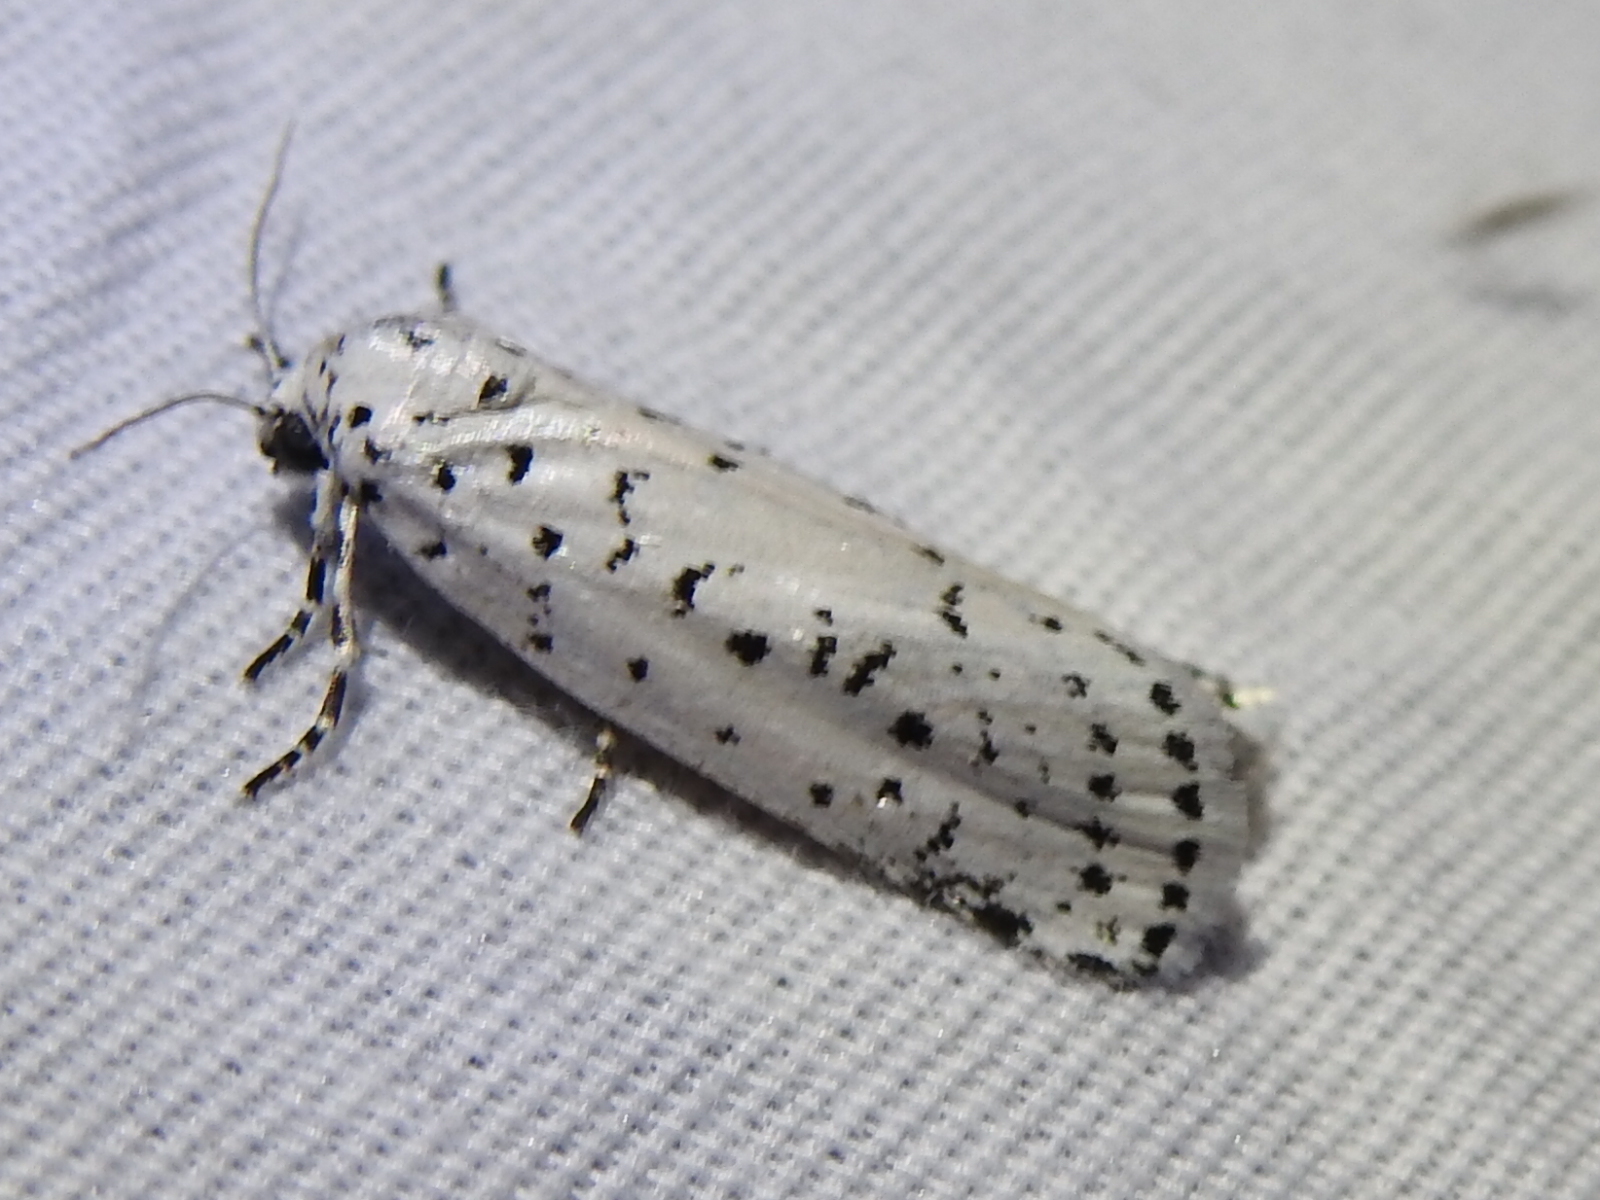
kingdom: Animalia
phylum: Arthropoda
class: Insecta
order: Lepidoptera
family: Noctuidae
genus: Cerathosia
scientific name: Cerathosia tricolor
